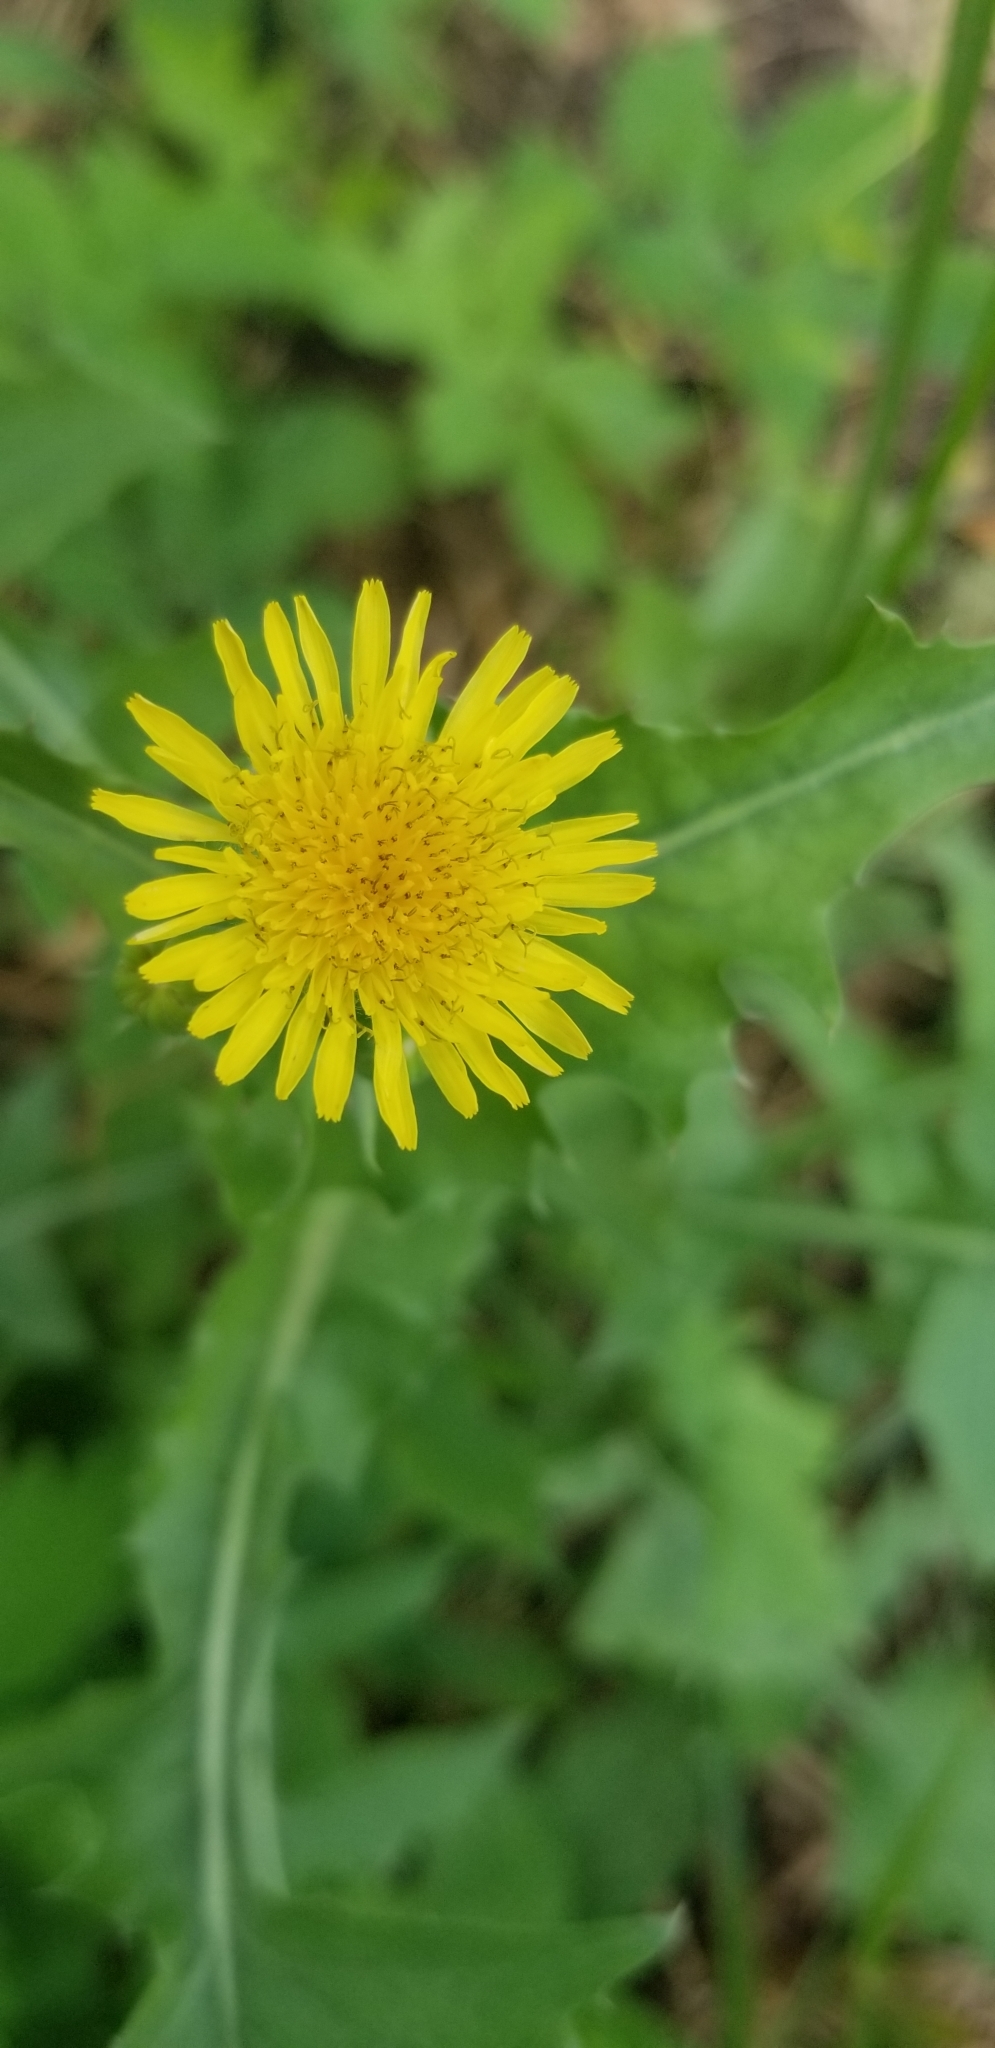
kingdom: Plantae
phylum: Tracheophyta
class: Magnoliopsida
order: Asterales
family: Asteraceae
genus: Sonchus
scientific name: Sonchus oleraceus
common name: Common sowthistle
